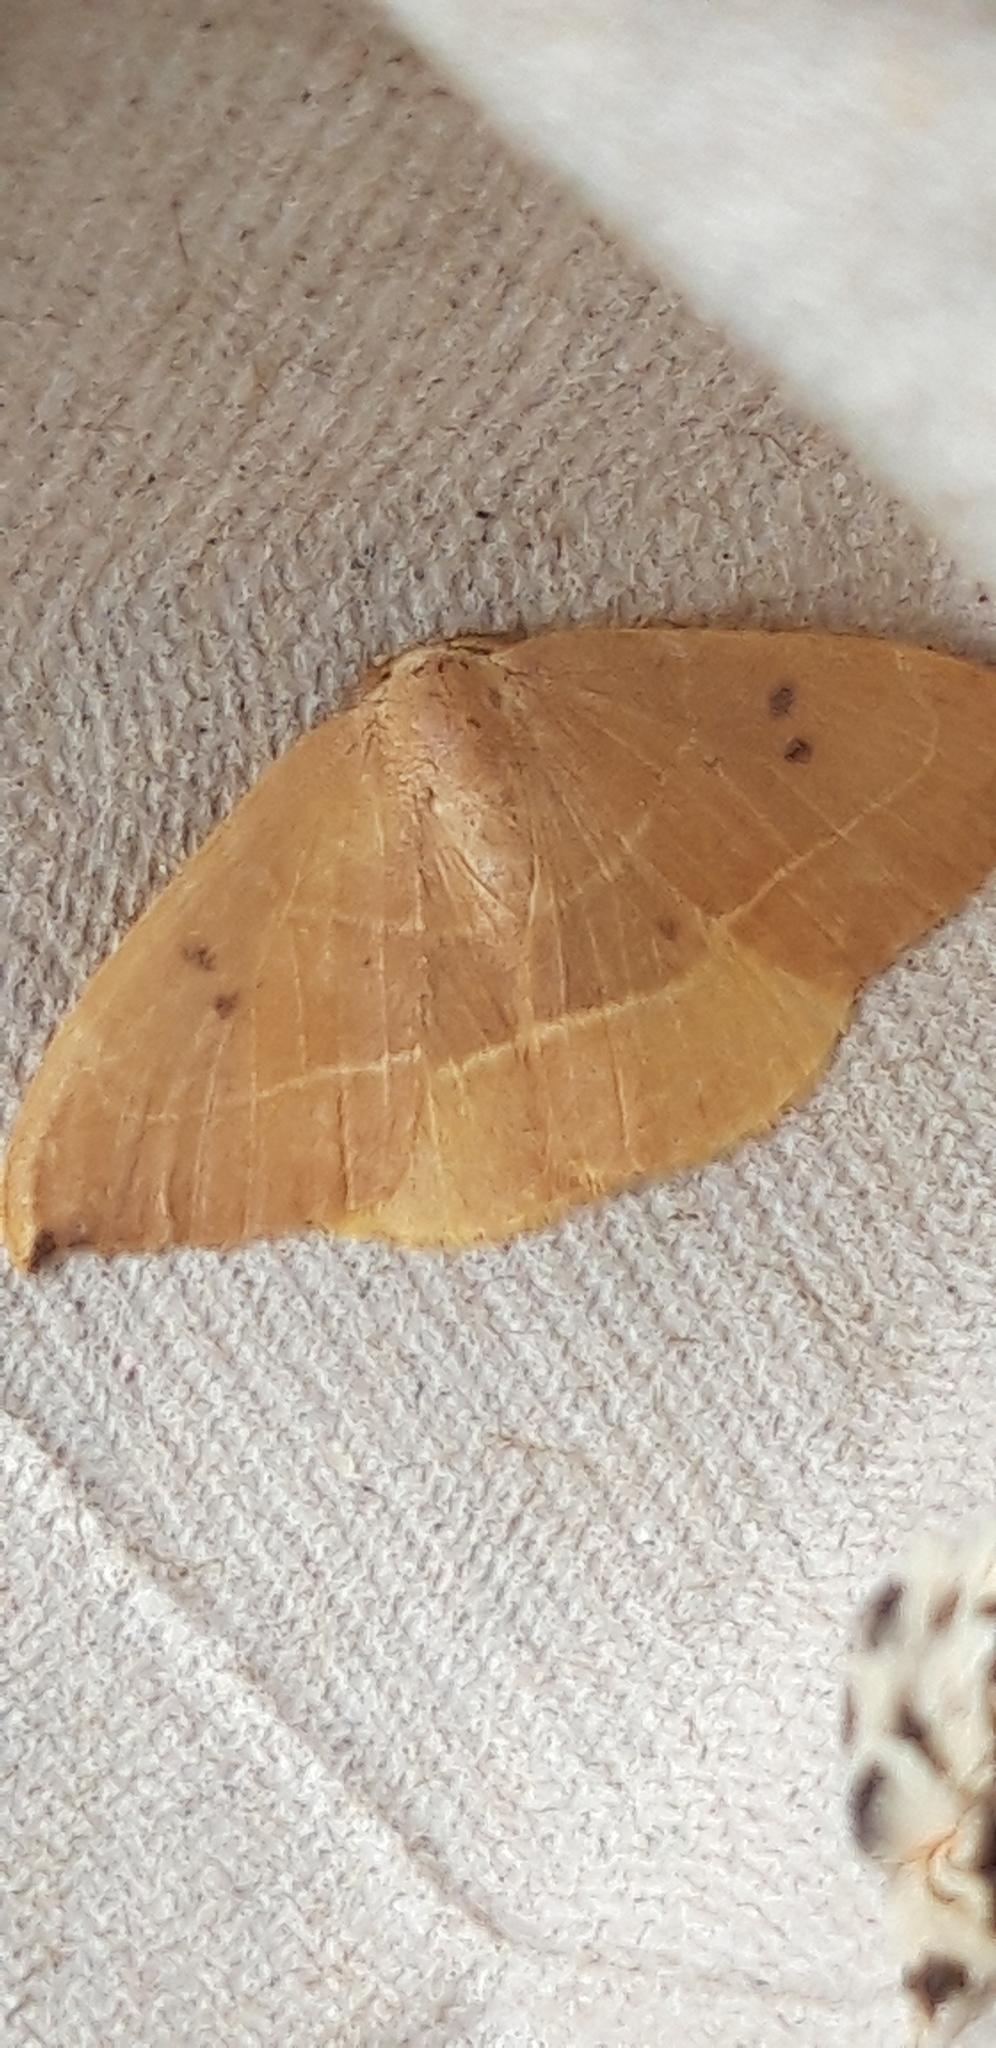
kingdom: Animalia
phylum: Arthropoda
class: Insecta
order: Lepidoptera
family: Drepanidae
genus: Watsonalla
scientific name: Watsonalla binaria
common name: Oak hook-tip
